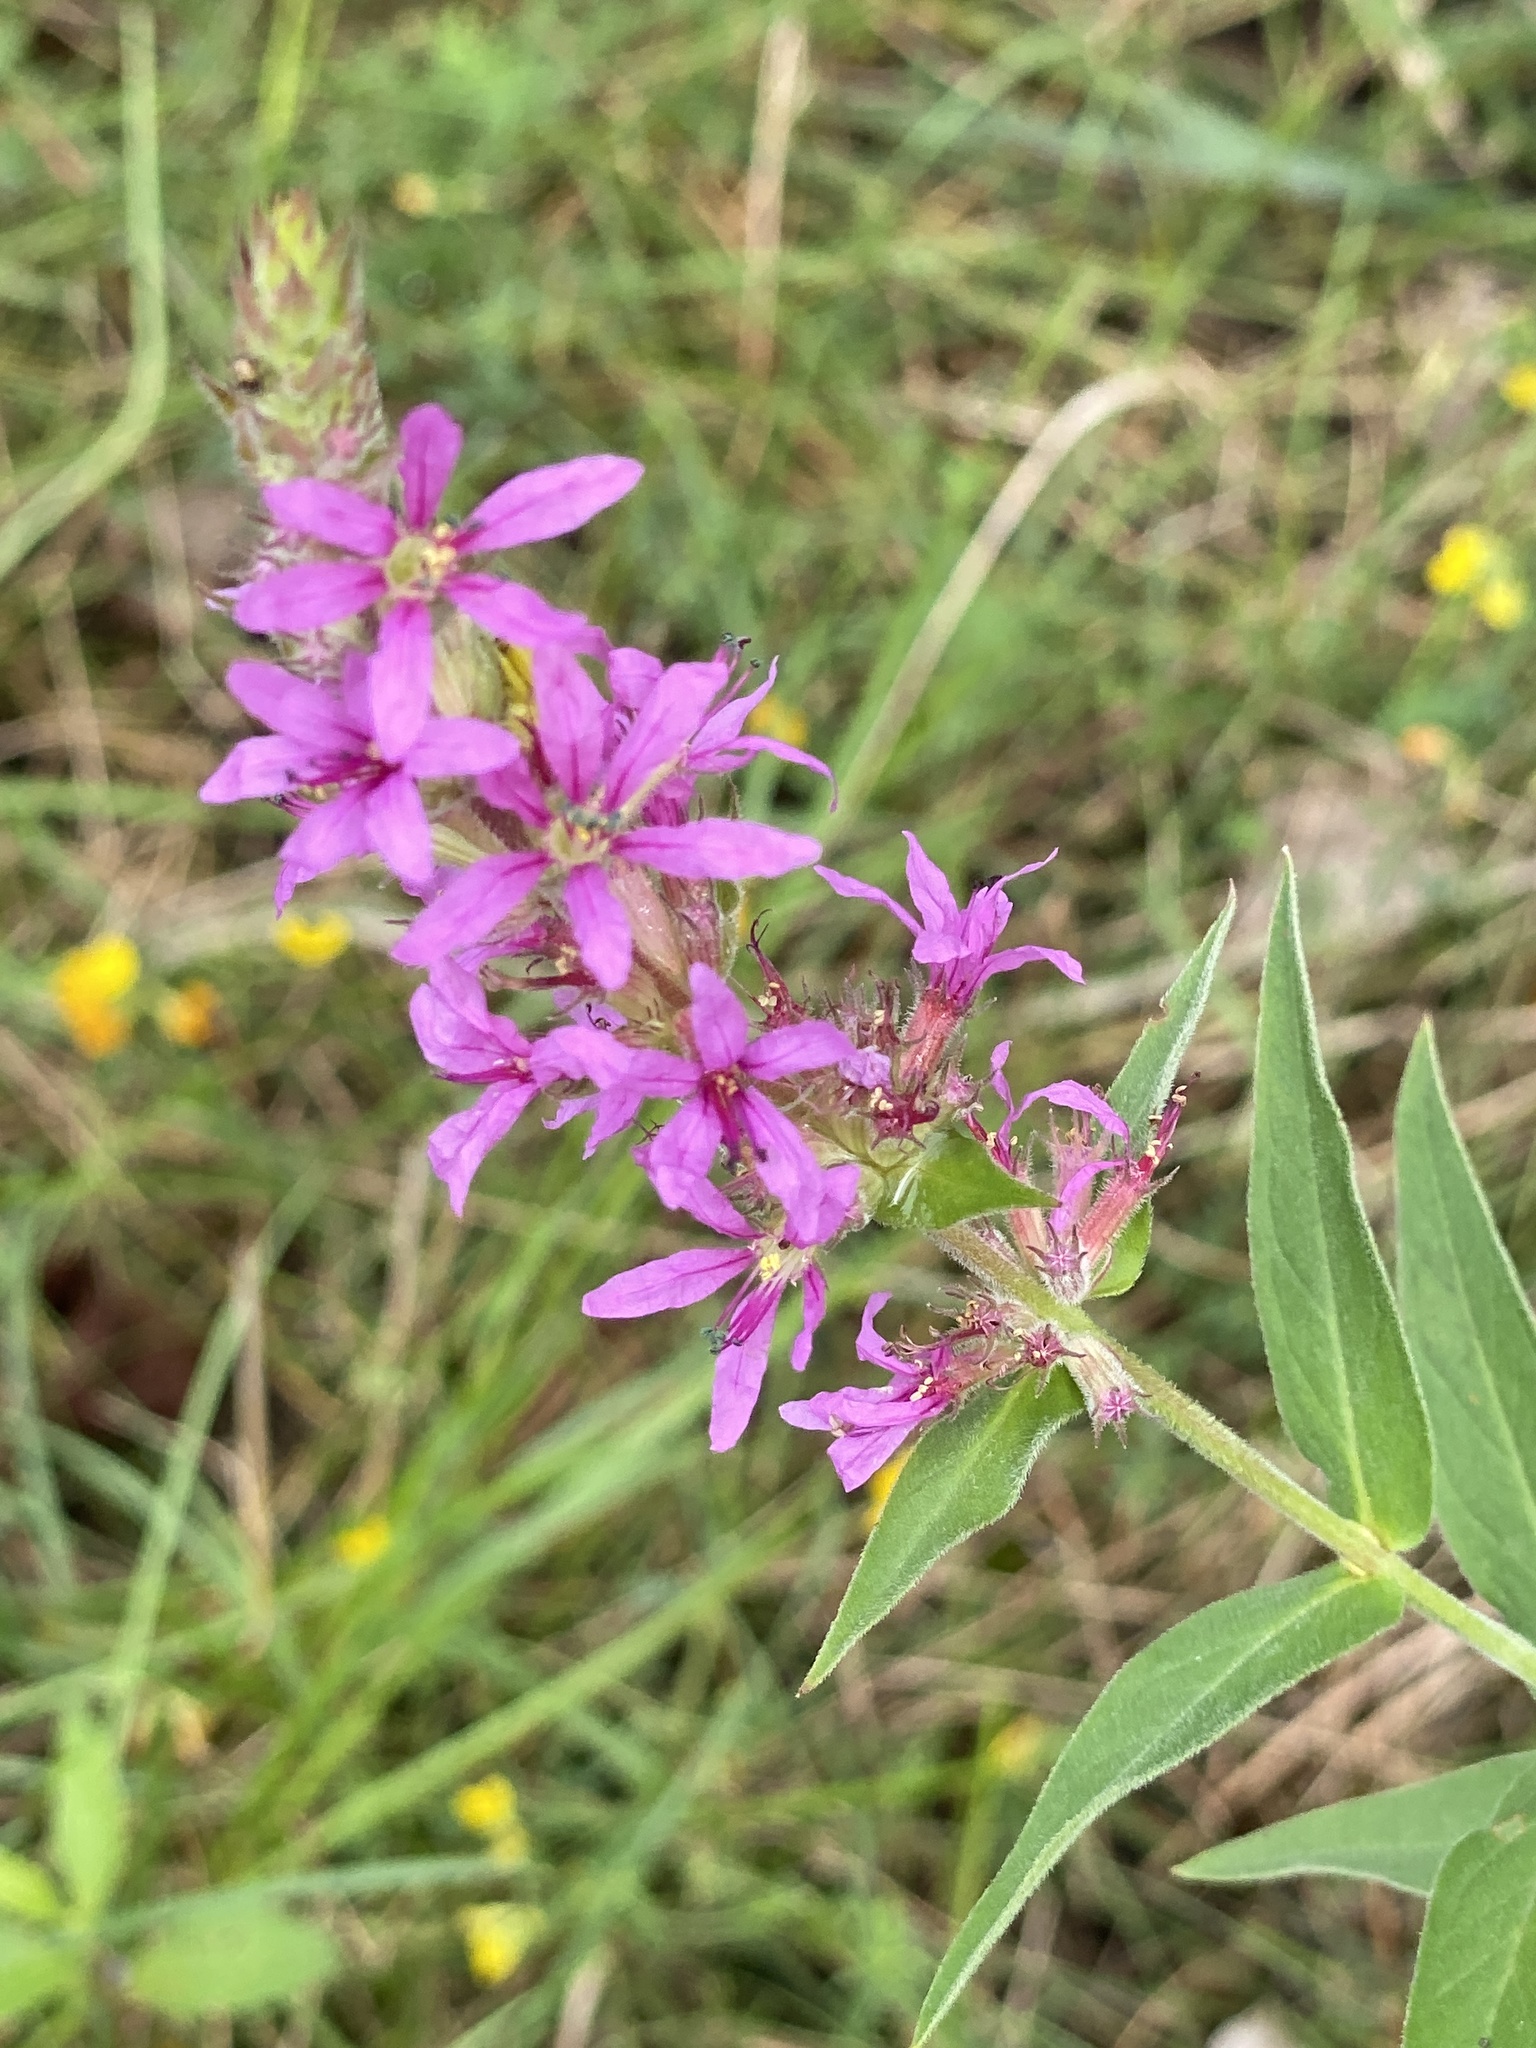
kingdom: Plantae
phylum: Tracheophyta
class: Magnoliopsida
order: Myrtales
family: Lythraceae
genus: Lythrum
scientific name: Lythrum salicaria
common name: Purple loosestrife
